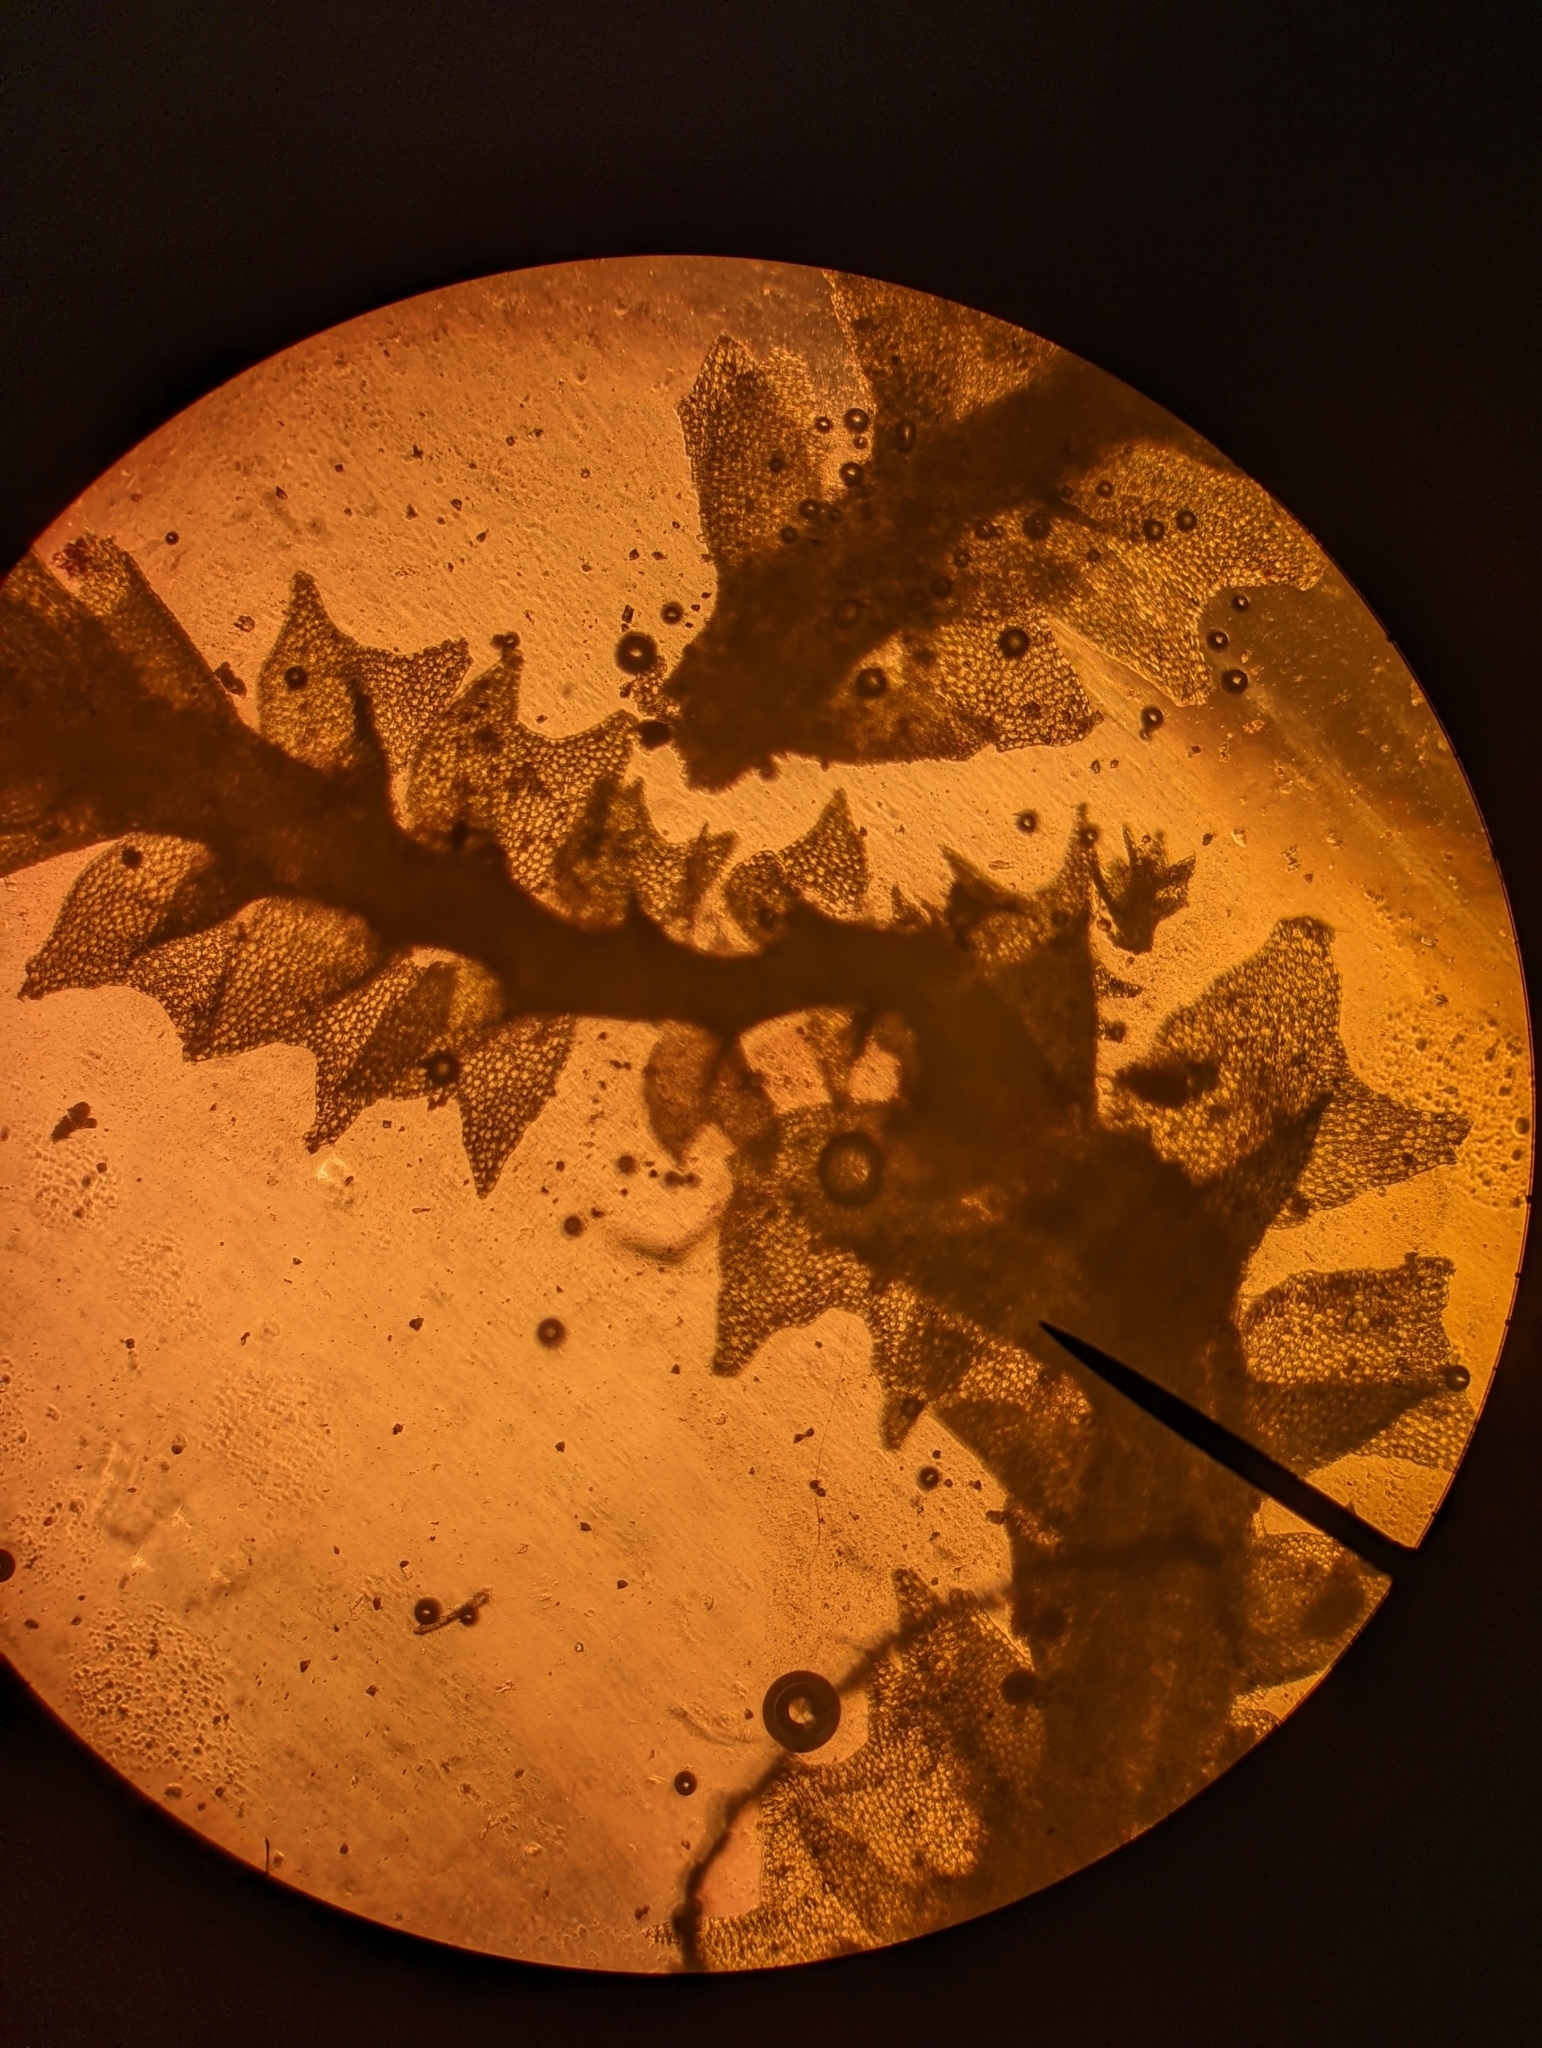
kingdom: Plantae
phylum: Marchantiophyta
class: Jungermanniopsida
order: Jungermanniales
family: Anastrophyllaceae
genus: Crossocalyx
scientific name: Crossocalyx hellerianus
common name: Heller's notchwort
